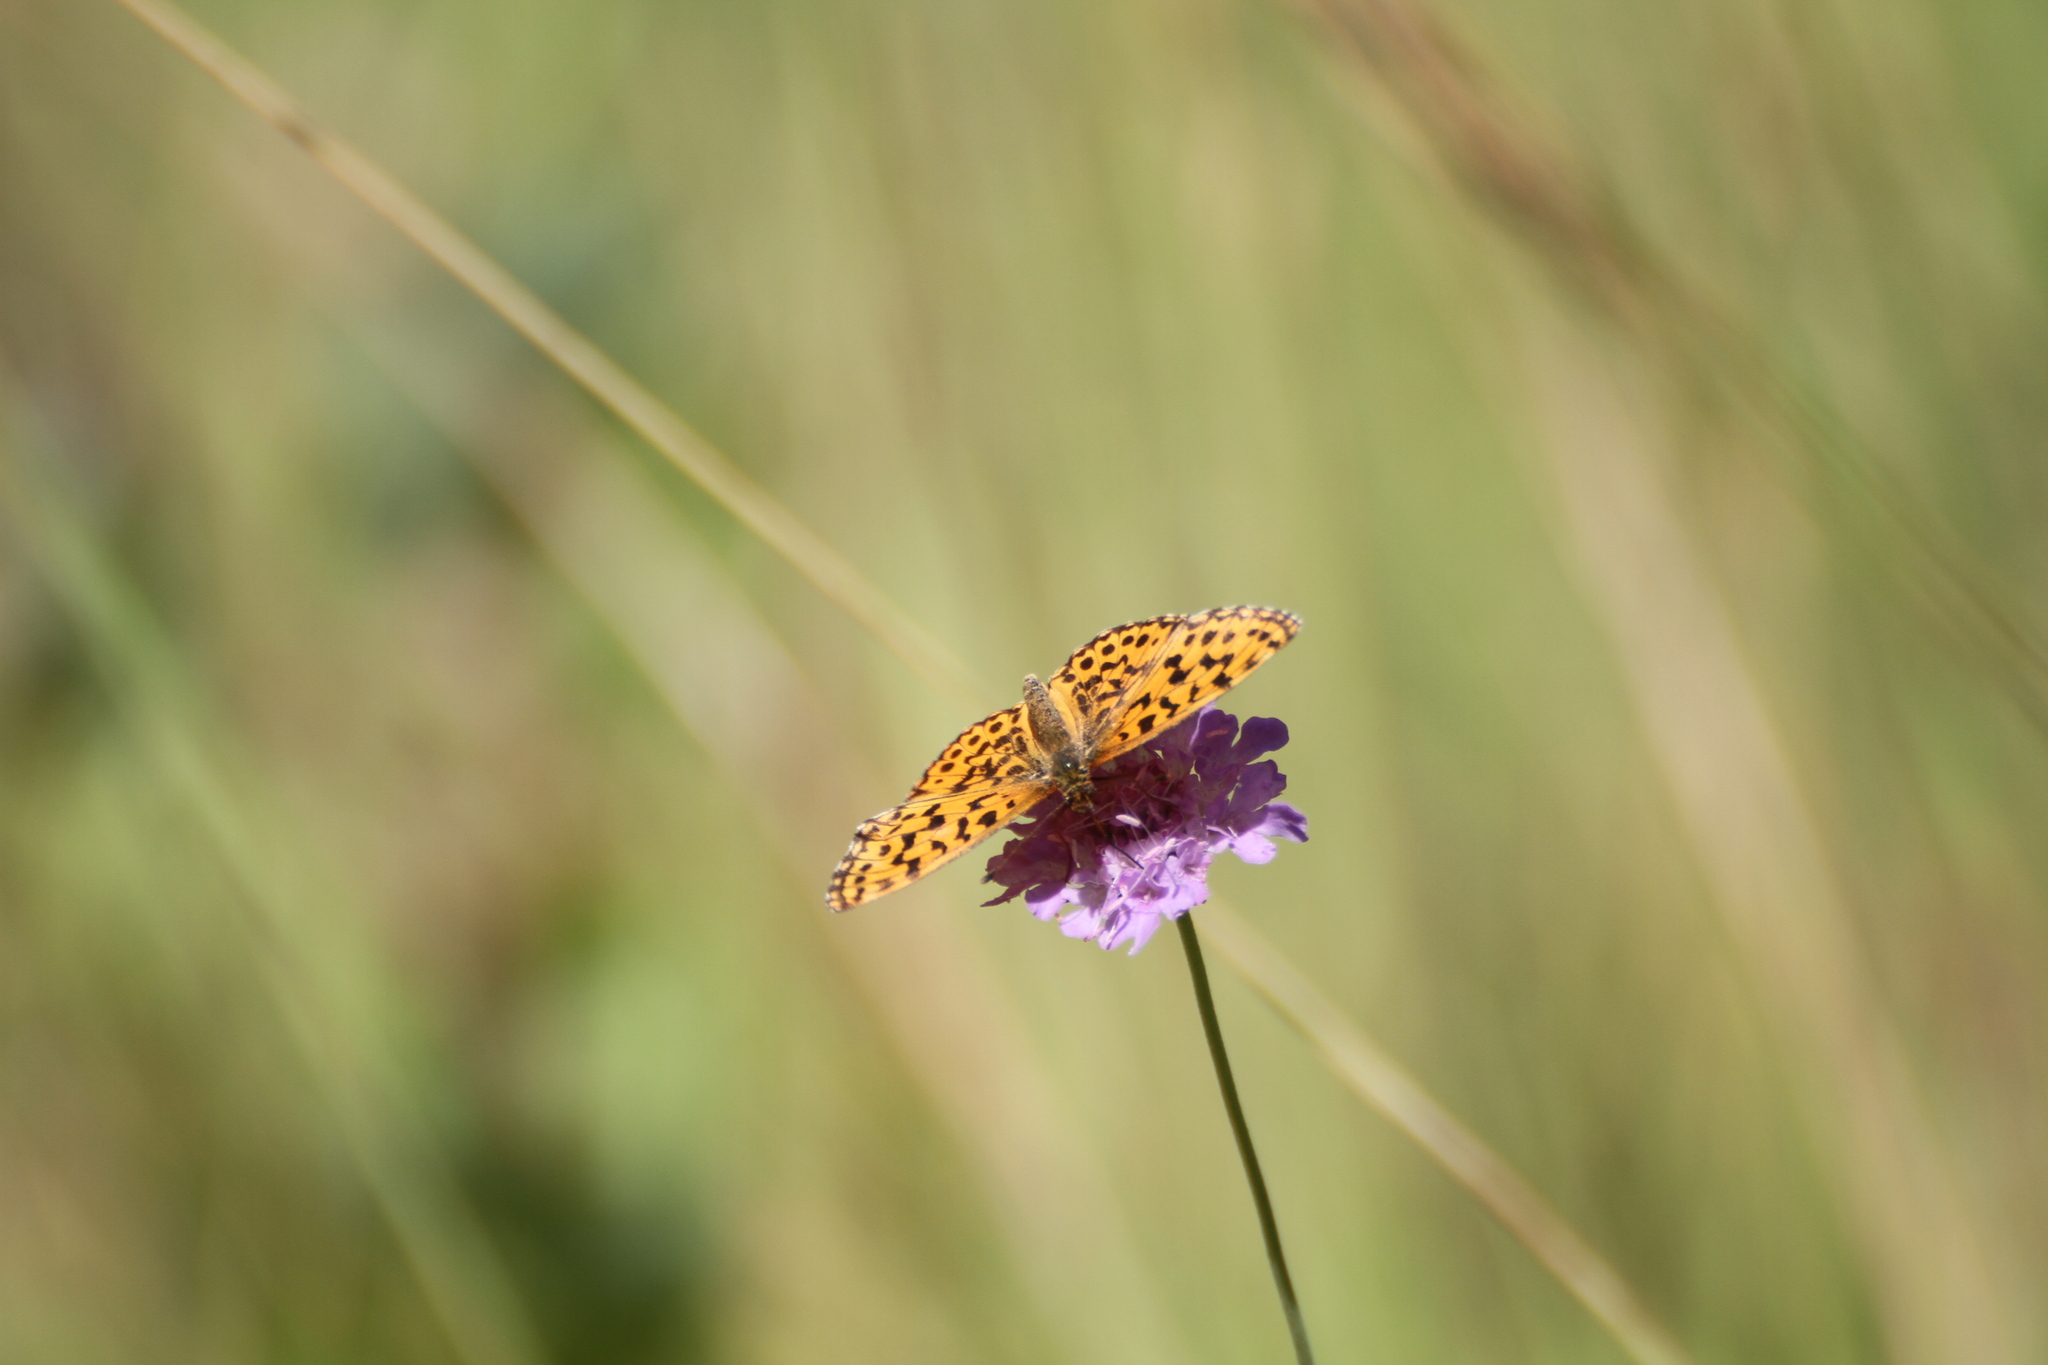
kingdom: Animalia
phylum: Arthropoda
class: Insecta
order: Lepidoptera
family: Nymphalidae
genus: Boloria
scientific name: Boloria dia
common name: Weaver's fritillary
